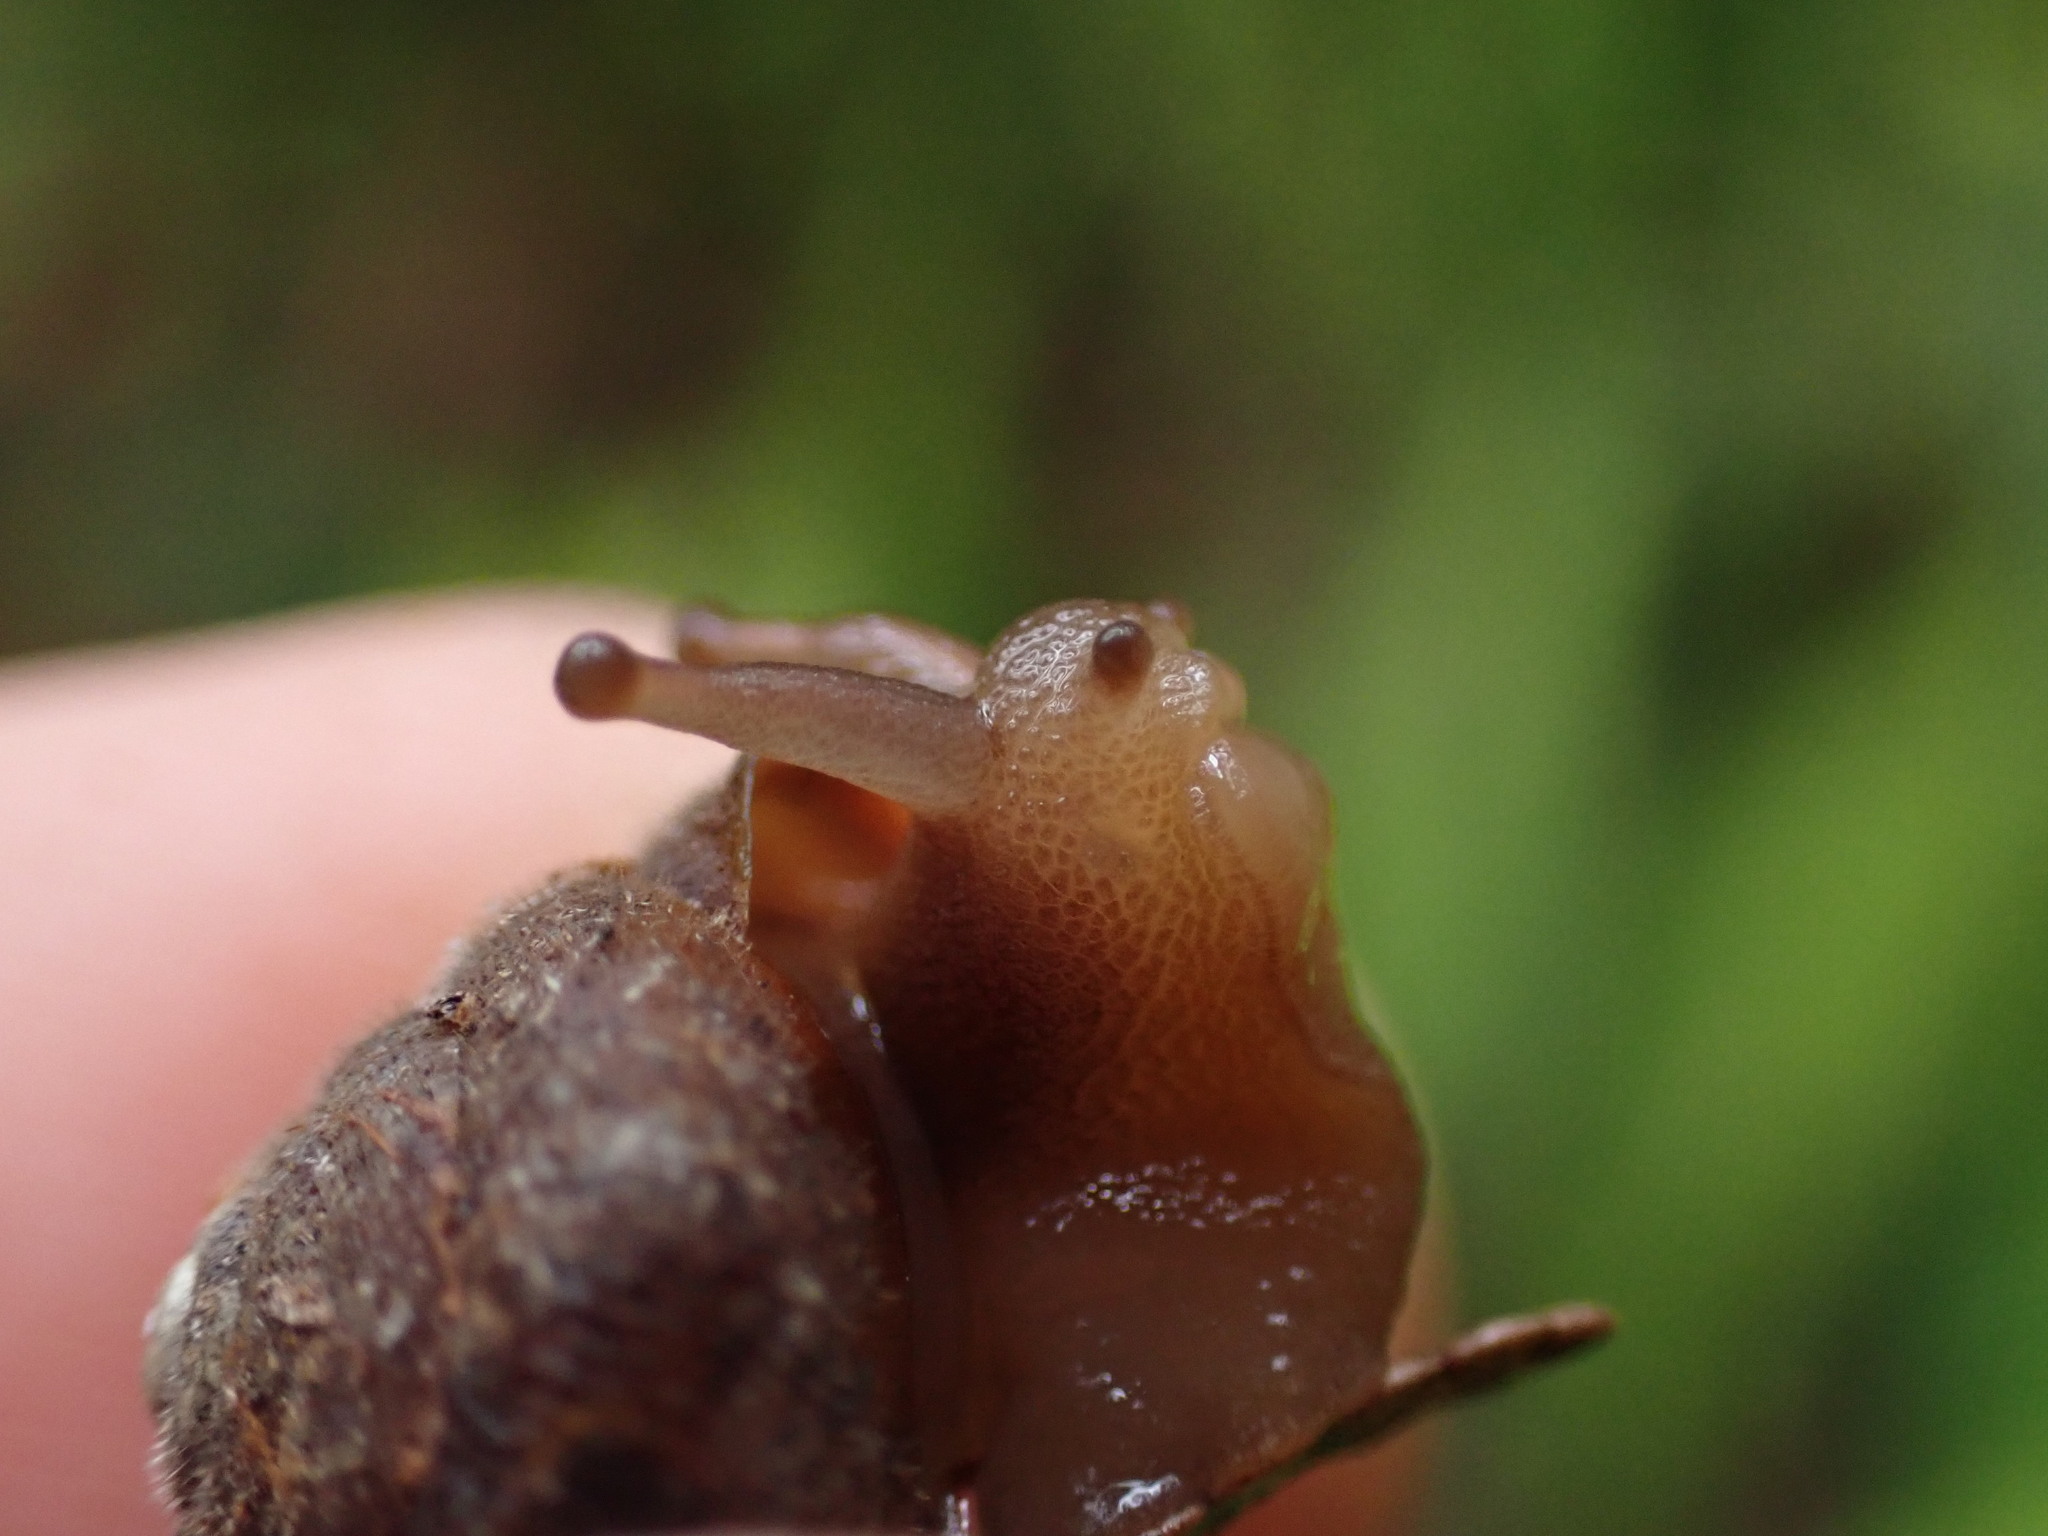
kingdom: Animalia
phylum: Mollusca
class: Gastropoda
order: Stylommatophora
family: Polygyridae
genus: Vespericola
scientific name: Vespericola columbianus
